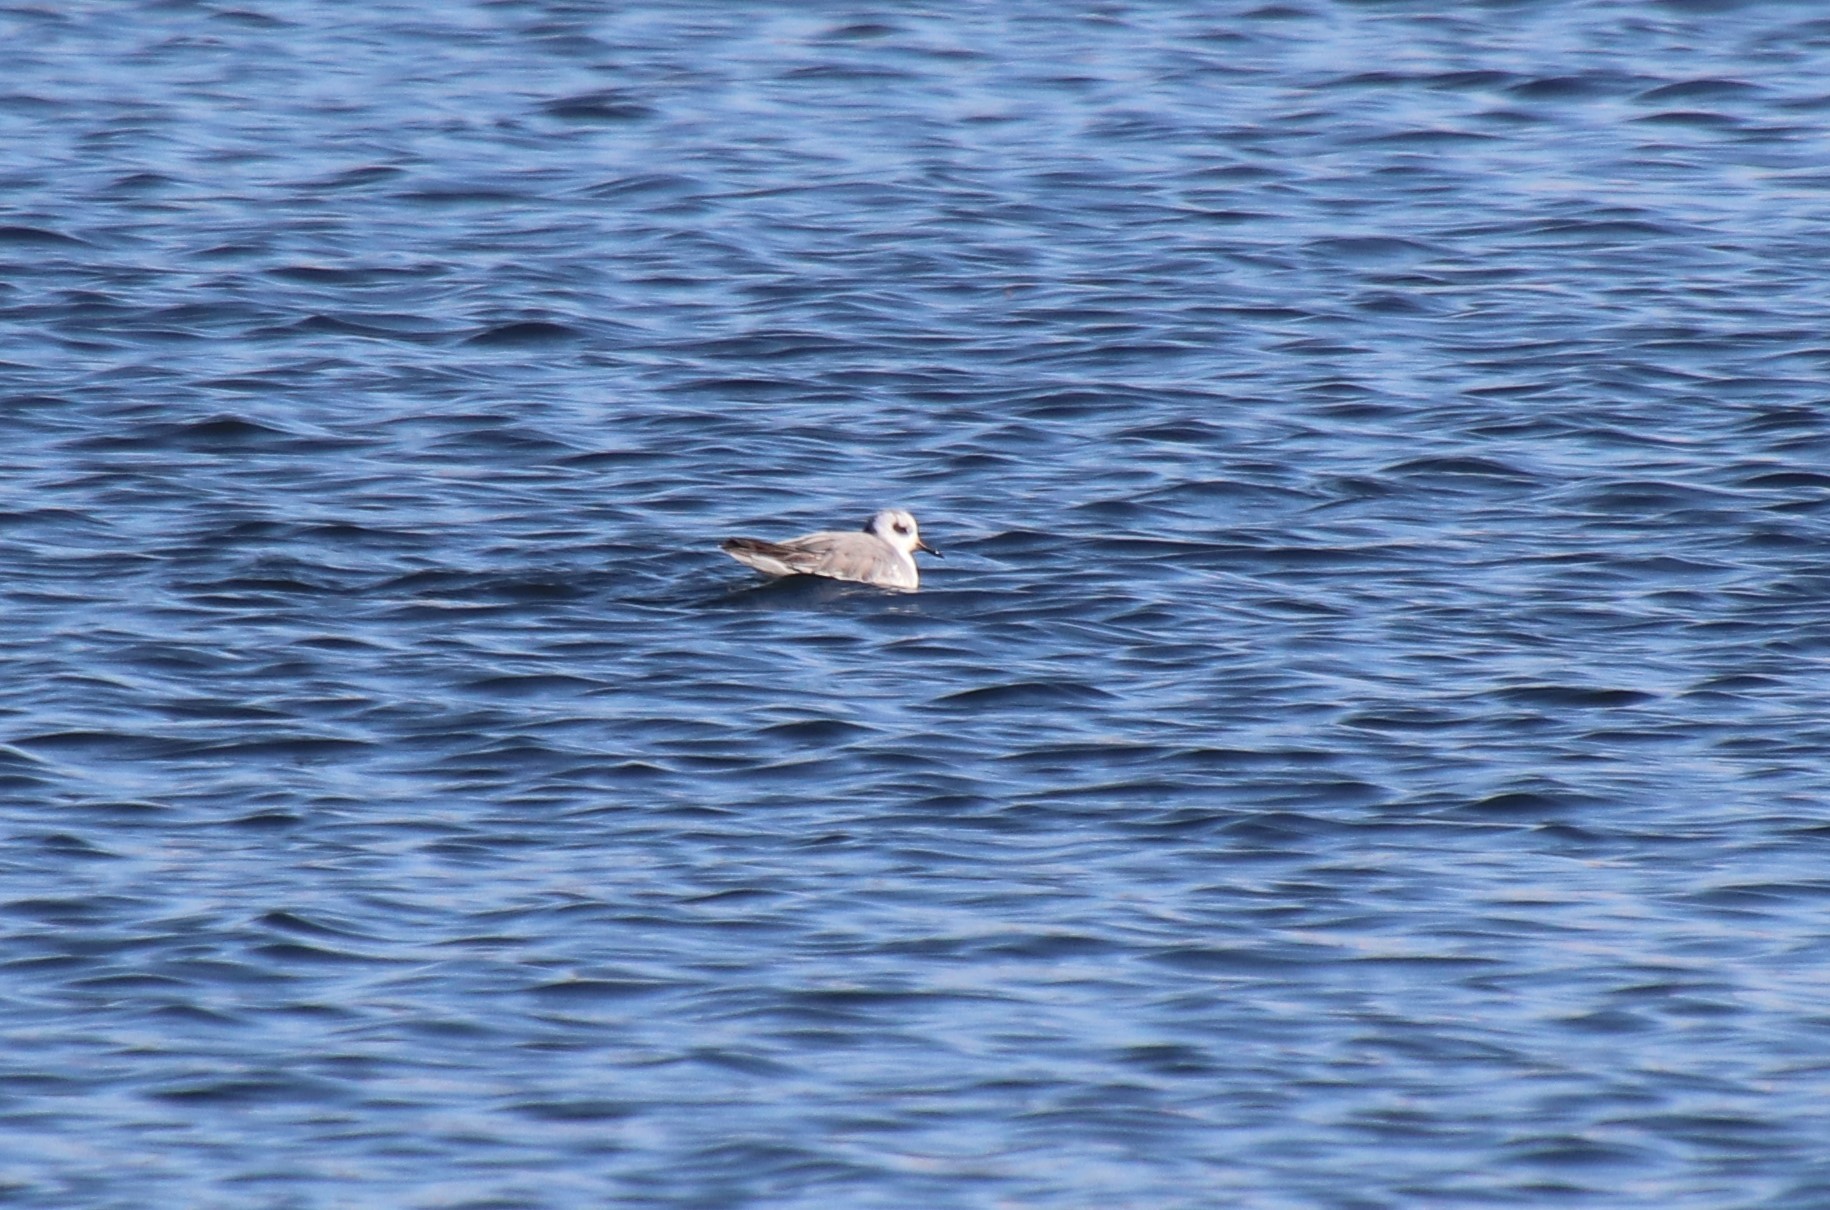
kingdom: Animalia
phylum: Chordata
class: Aves
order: Charadriiformes
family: Scolopacidae
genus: Phalaropus
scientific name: Phalaropus fulicarius
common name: Red phalarope
